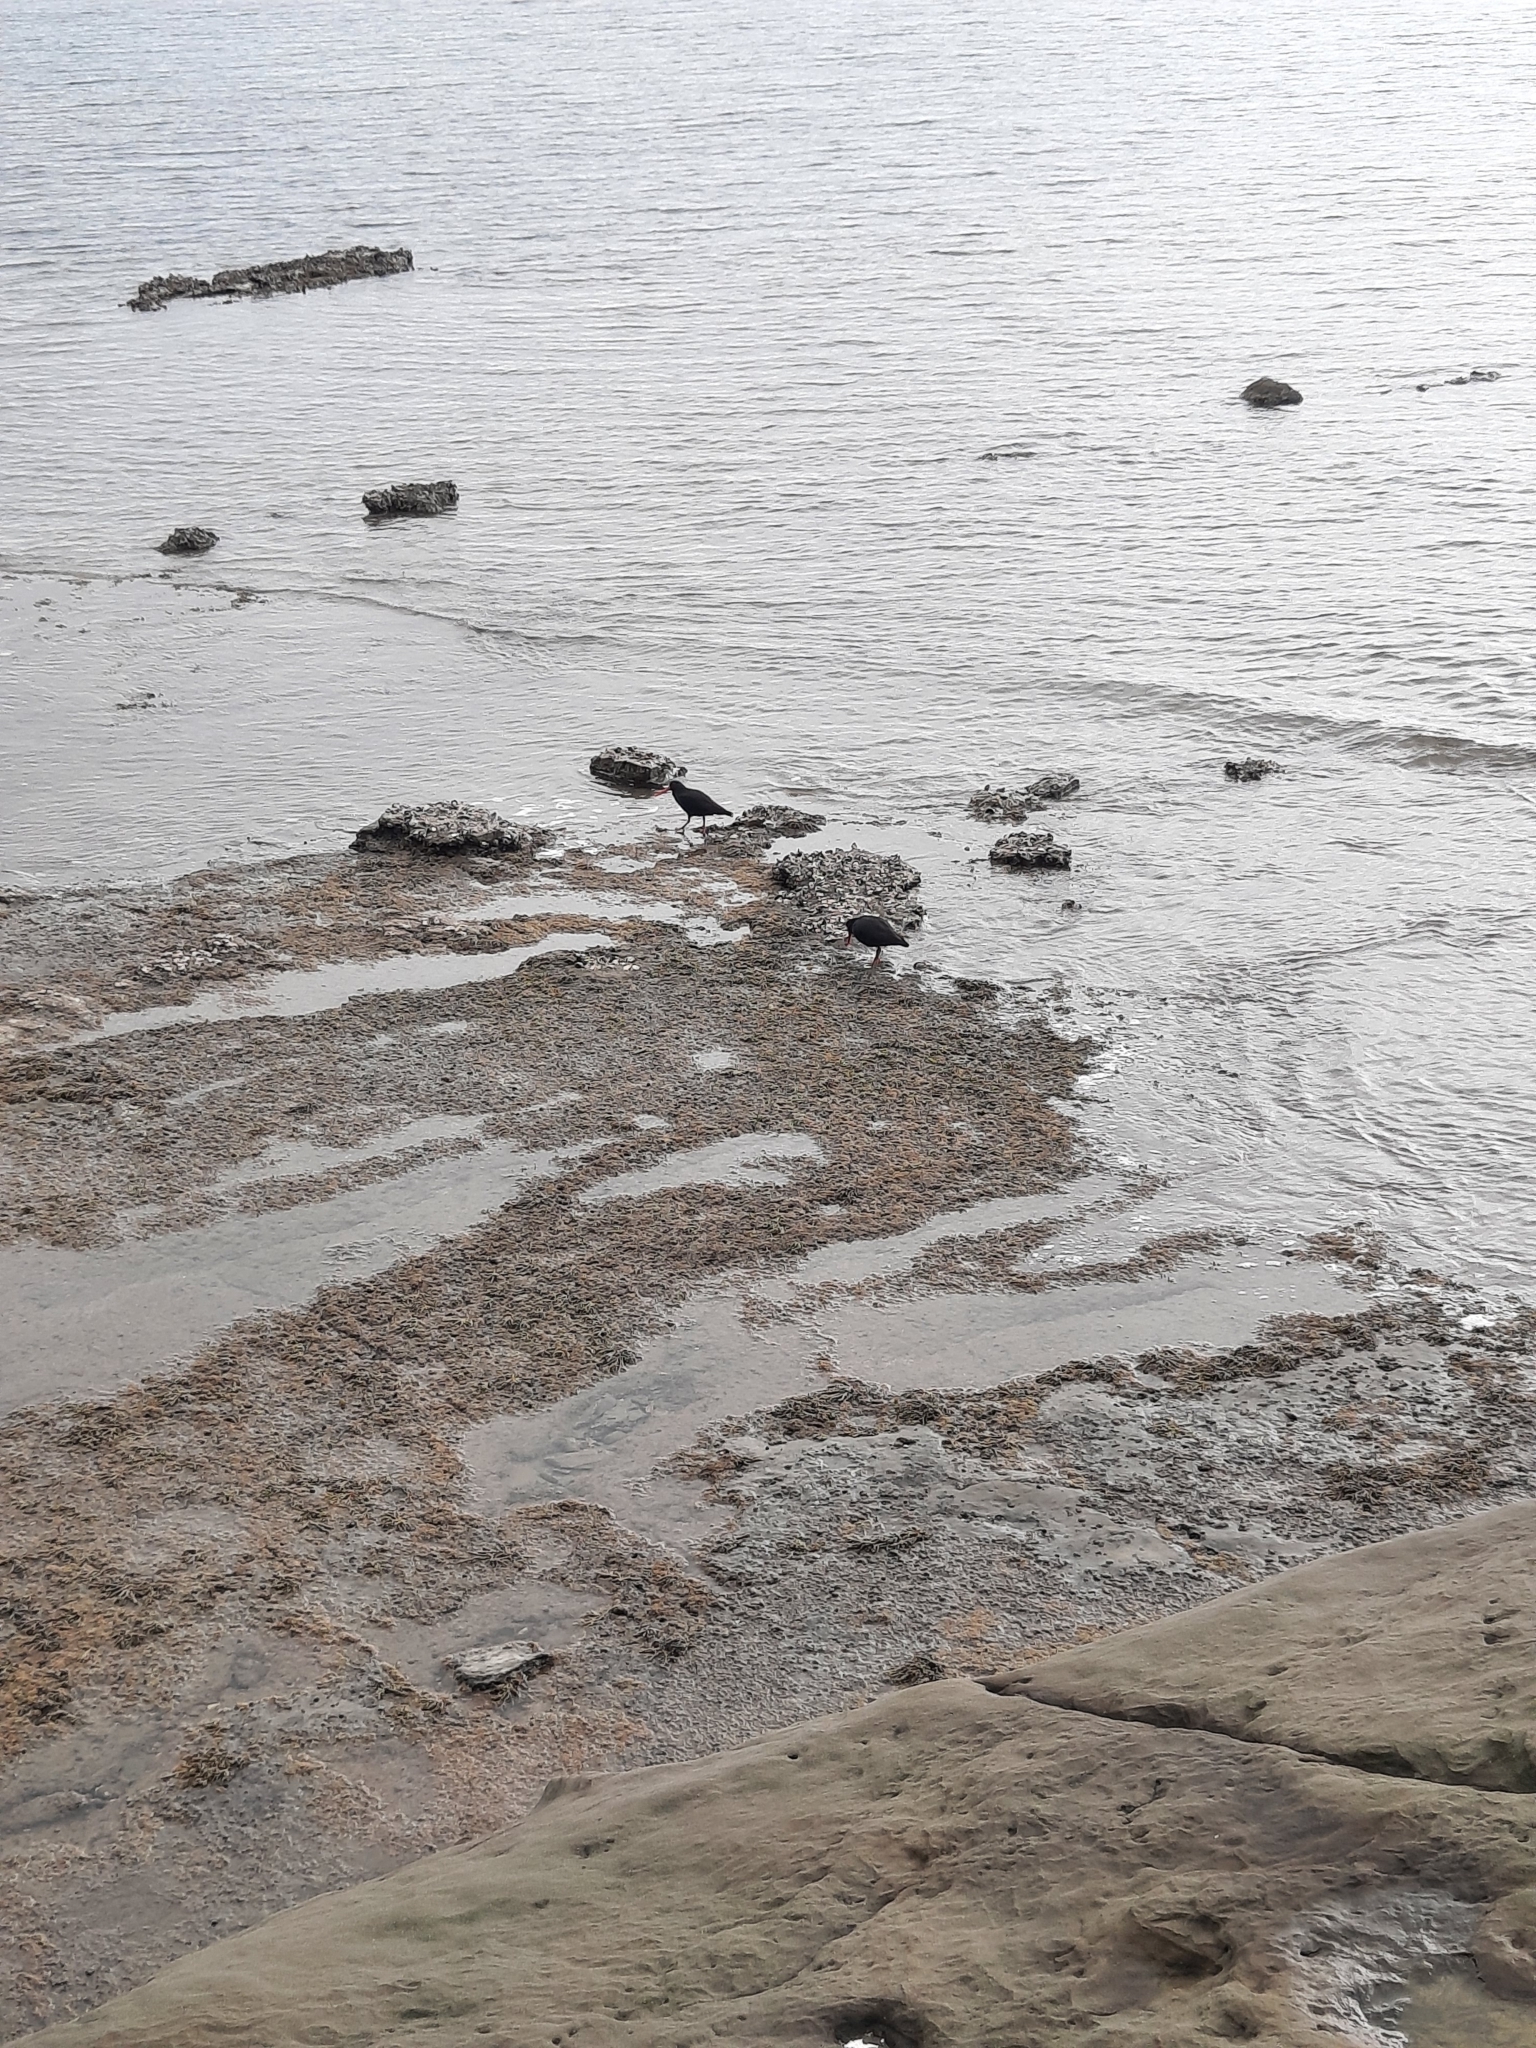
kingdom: Animalia
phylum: Chordata
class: Aves
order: Charadriiformes
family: Haematopodidae
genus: Haematopus
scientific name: Haematopus unicolor
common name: Variable oystercatcher
